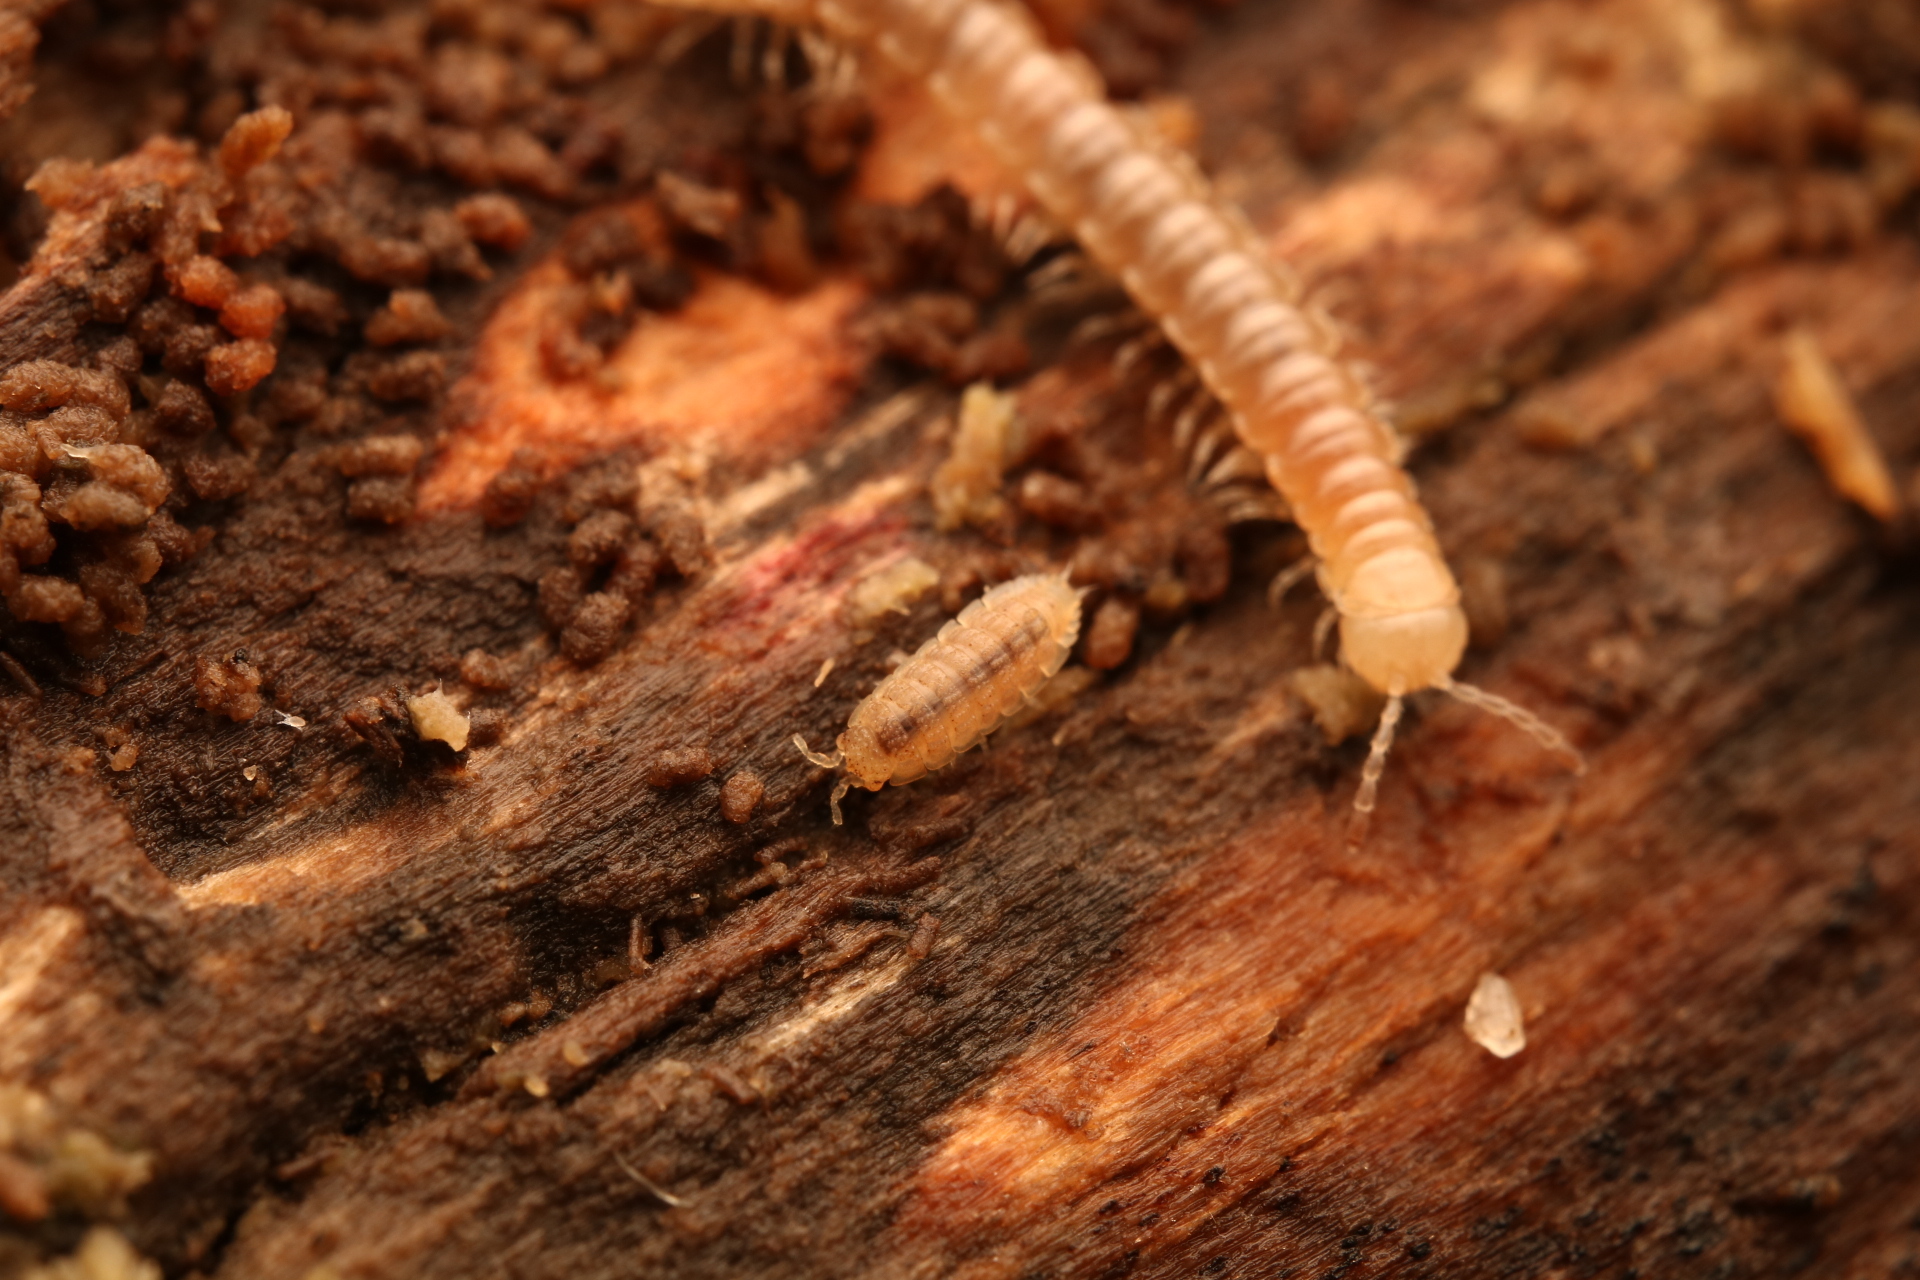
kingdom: Animalia
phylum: Arthropoda
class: Malacostraca
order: Isopoda
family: Trichoniscidae
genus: Haplophthalmus
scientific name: Haplophthalmus danicus
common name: Pillbug
